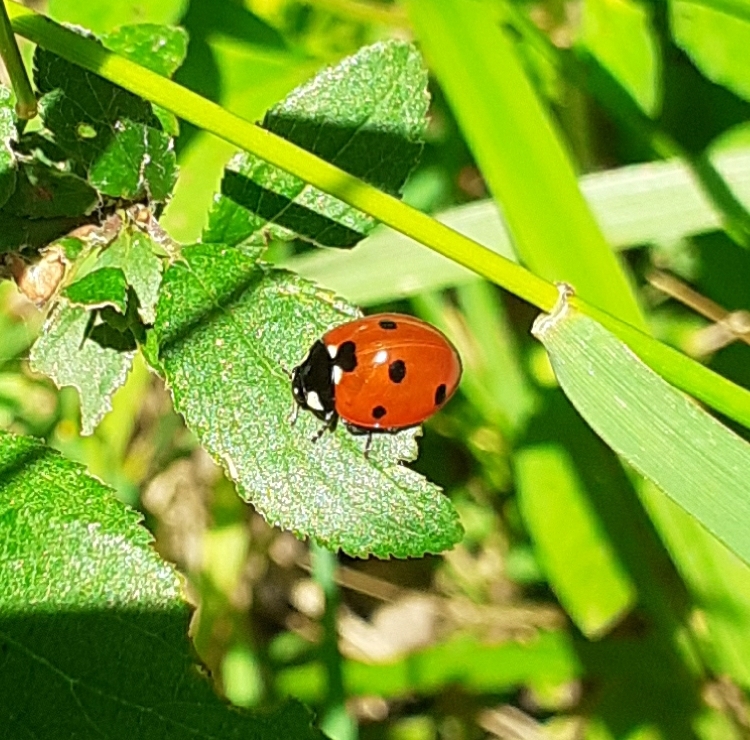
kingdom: Animalia
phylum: Arthropoda
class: Insecta
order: Coleoptera
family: Coccinellidae
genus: Coccinella
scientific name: Coccinella septempunctata
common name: Sevenspotted lady beetle
